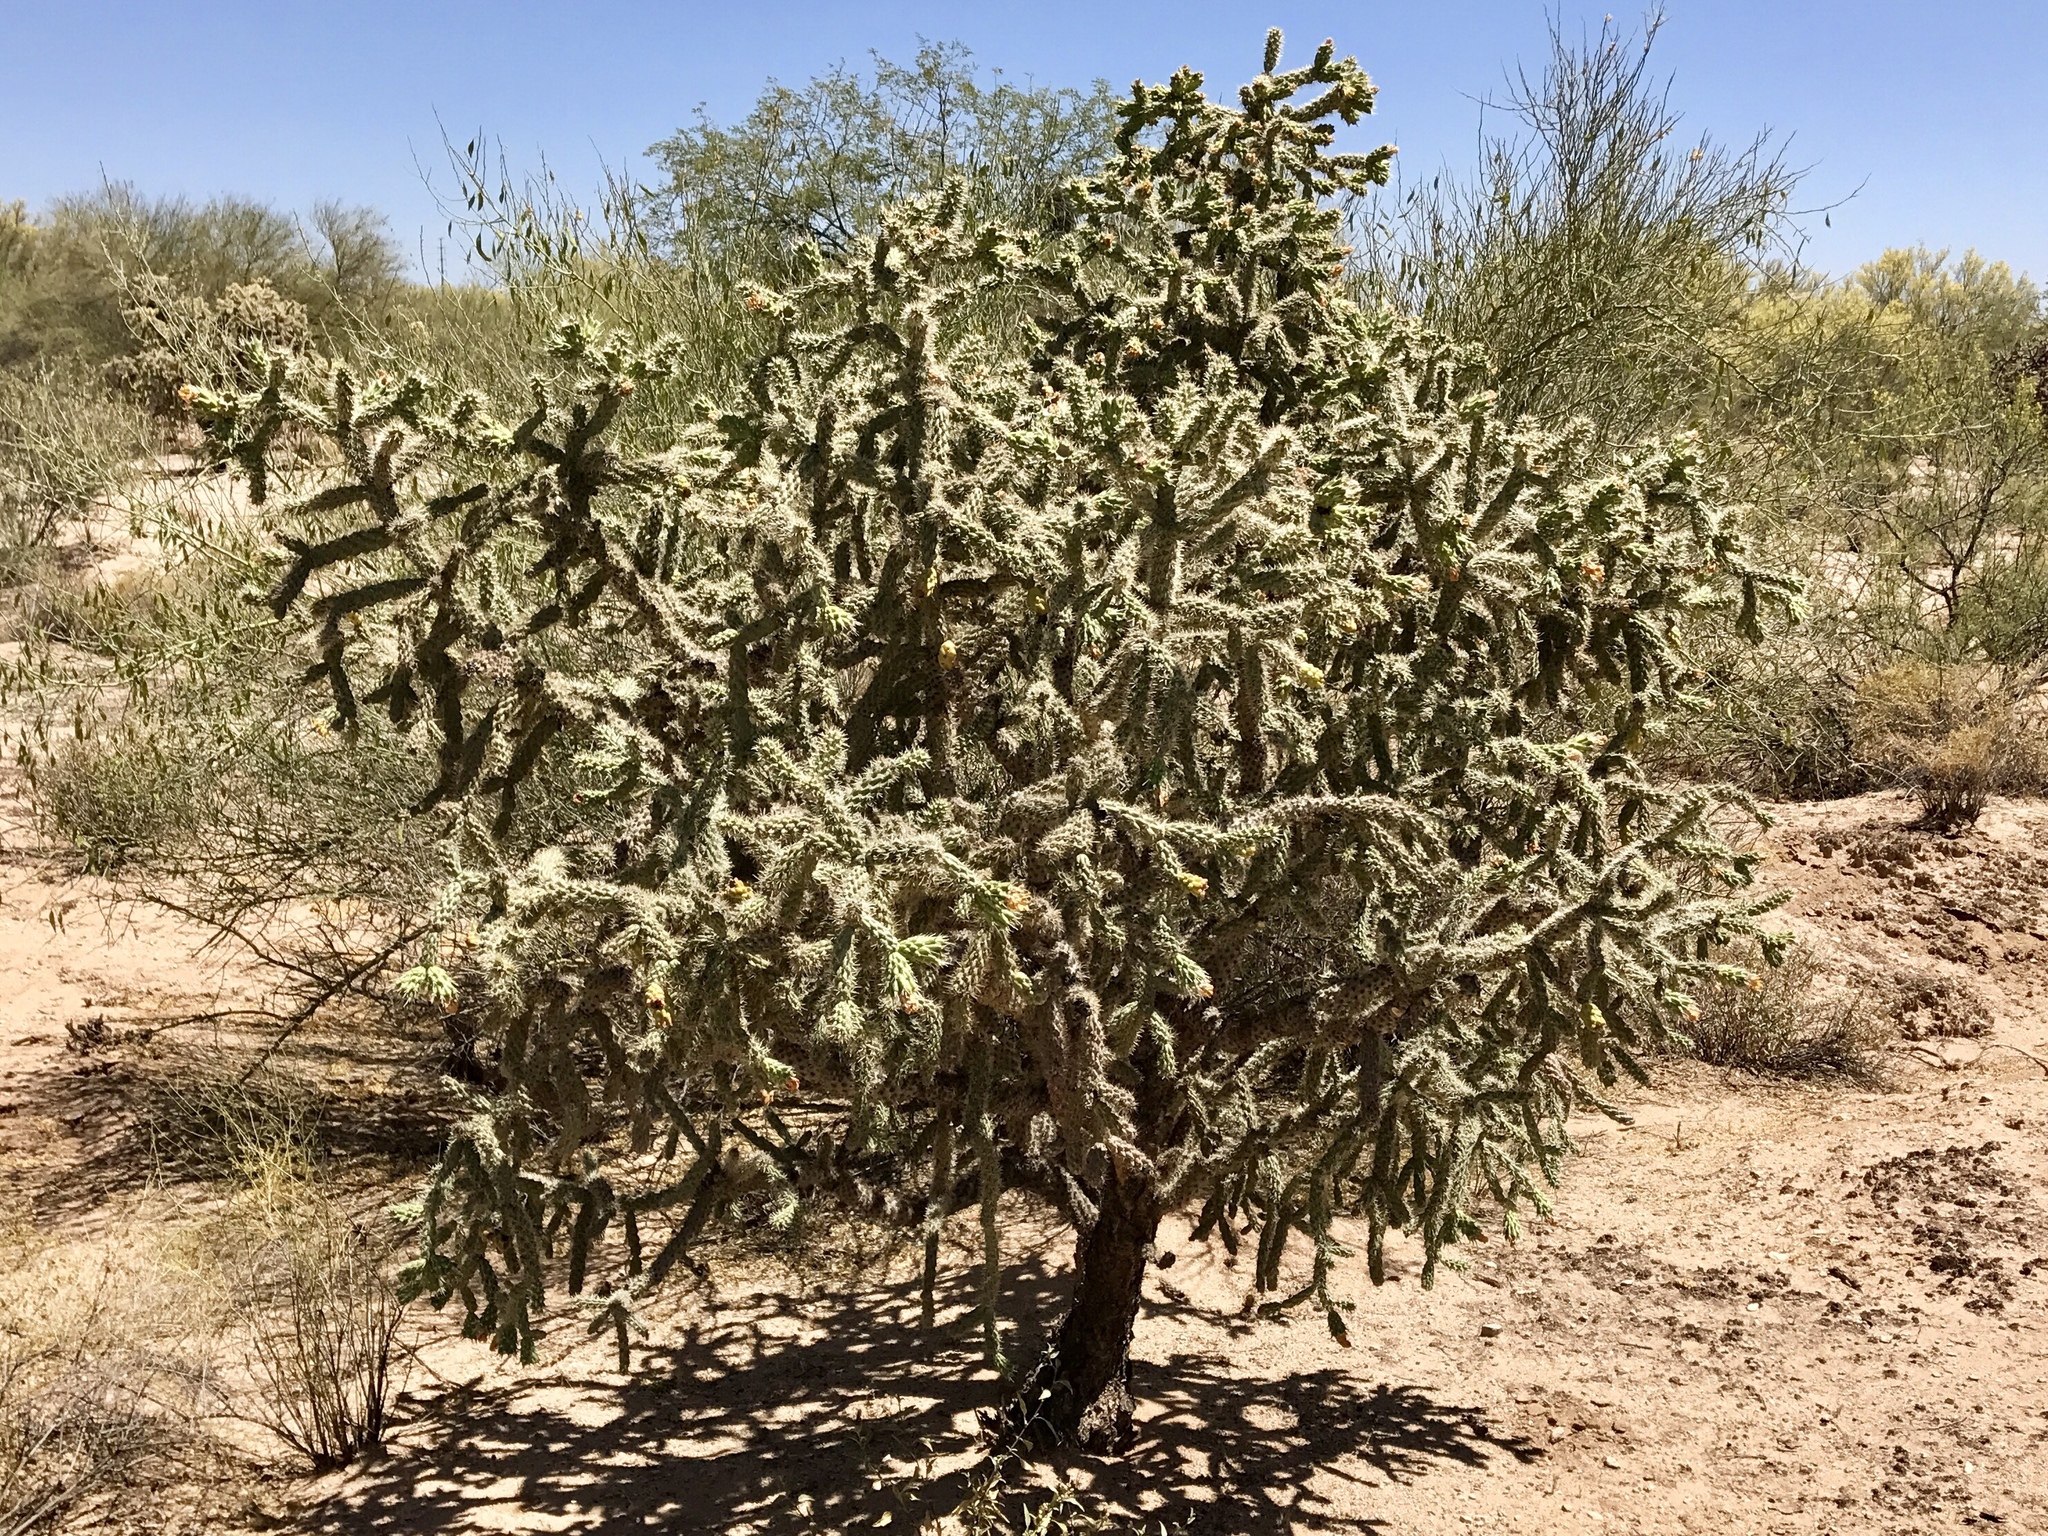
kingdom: Plantae
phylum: Tracheophyta
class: Magnoliopsida
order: Caryophyllales
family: Cactaceae
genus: Cylindropuntia
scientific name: Cylindropuntia acanthocarpa
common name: Buckhorn cholla
